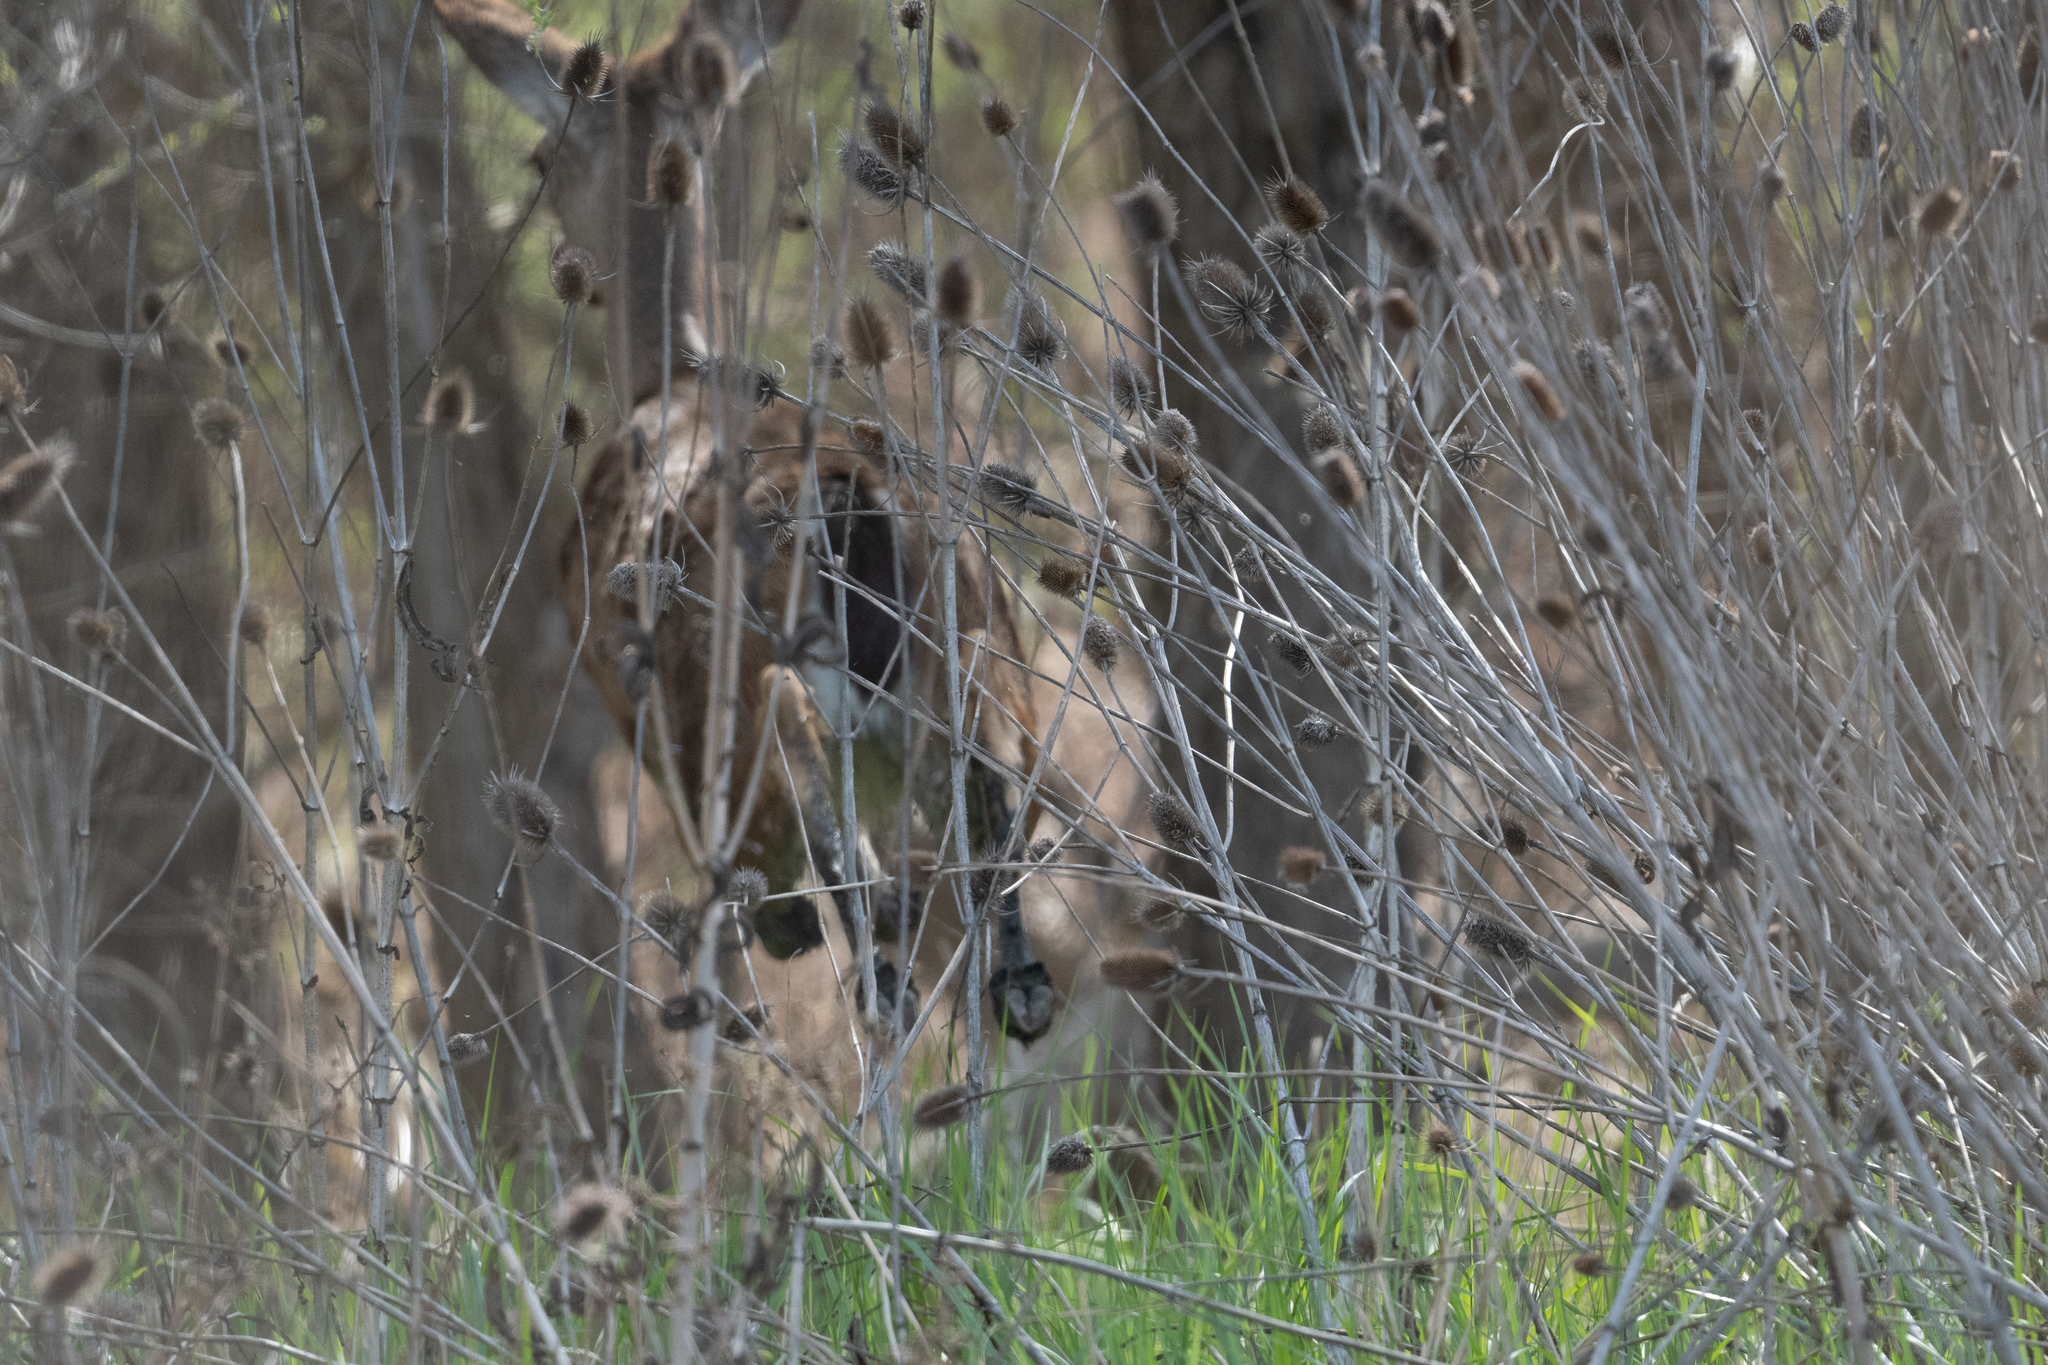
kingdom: Animalia
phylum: Chordata
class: Mammalia
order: Artiodactyla
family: Cervidae
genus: Odocoileus
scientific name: Odocoileus hemionus
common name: Mule deer
